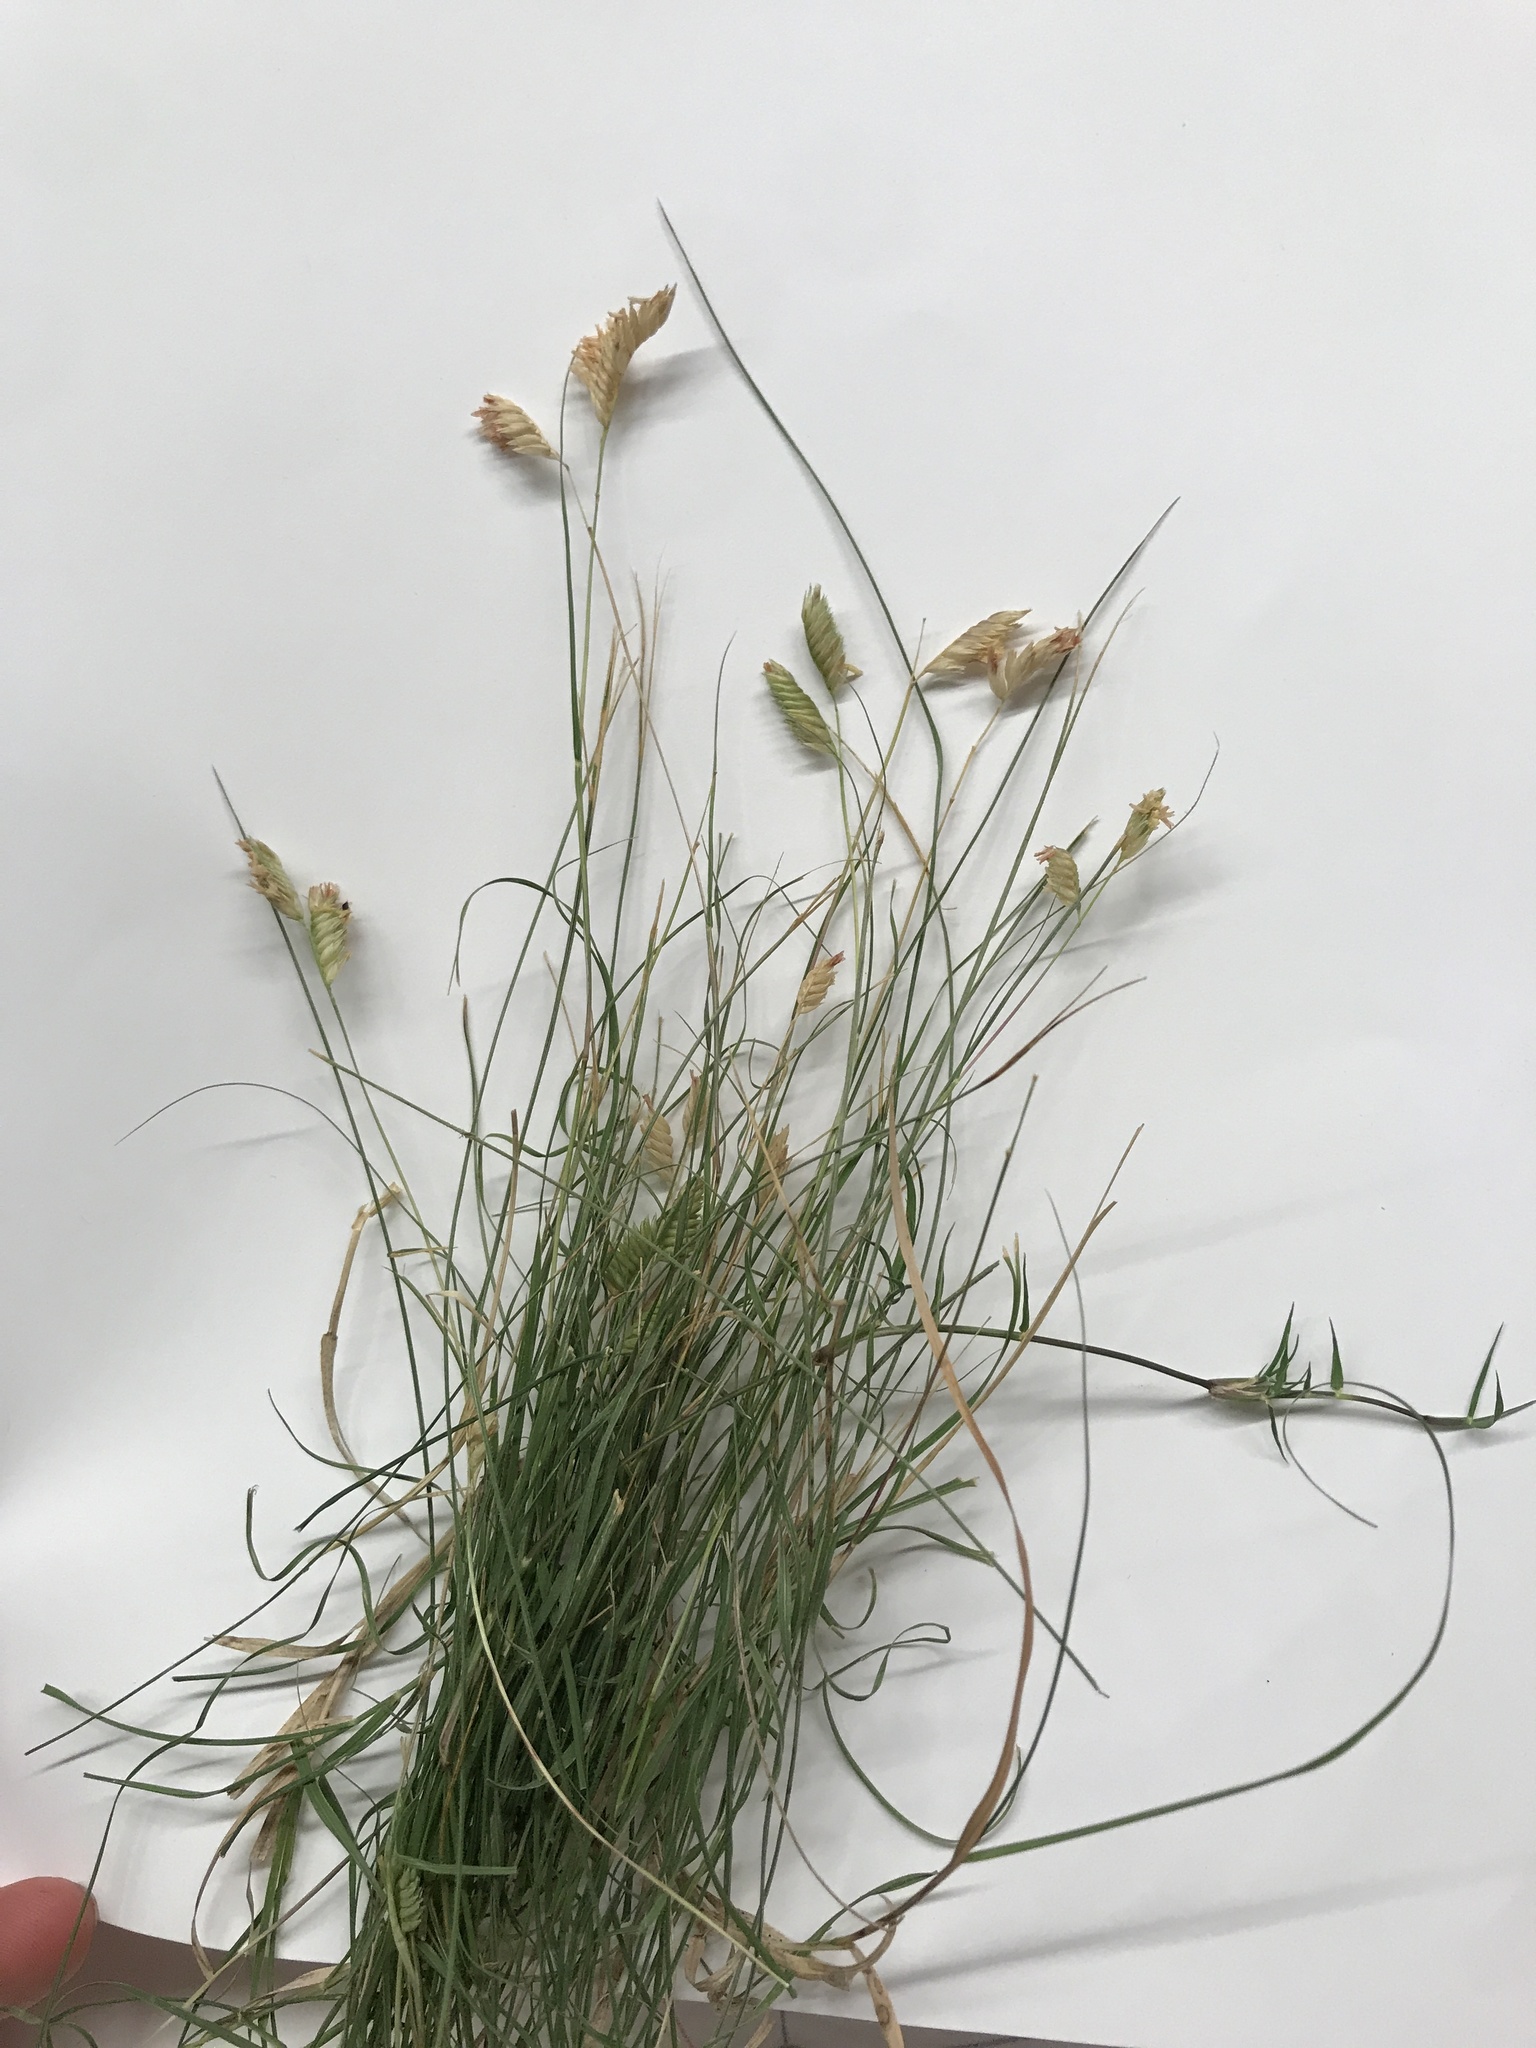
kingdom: Plantae
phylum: Tracheophyta
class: Liliopsida
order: Poales
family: Poaceae
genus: Bouteloua
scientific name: Bouteloua dactyloides
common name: Buffalo grass
